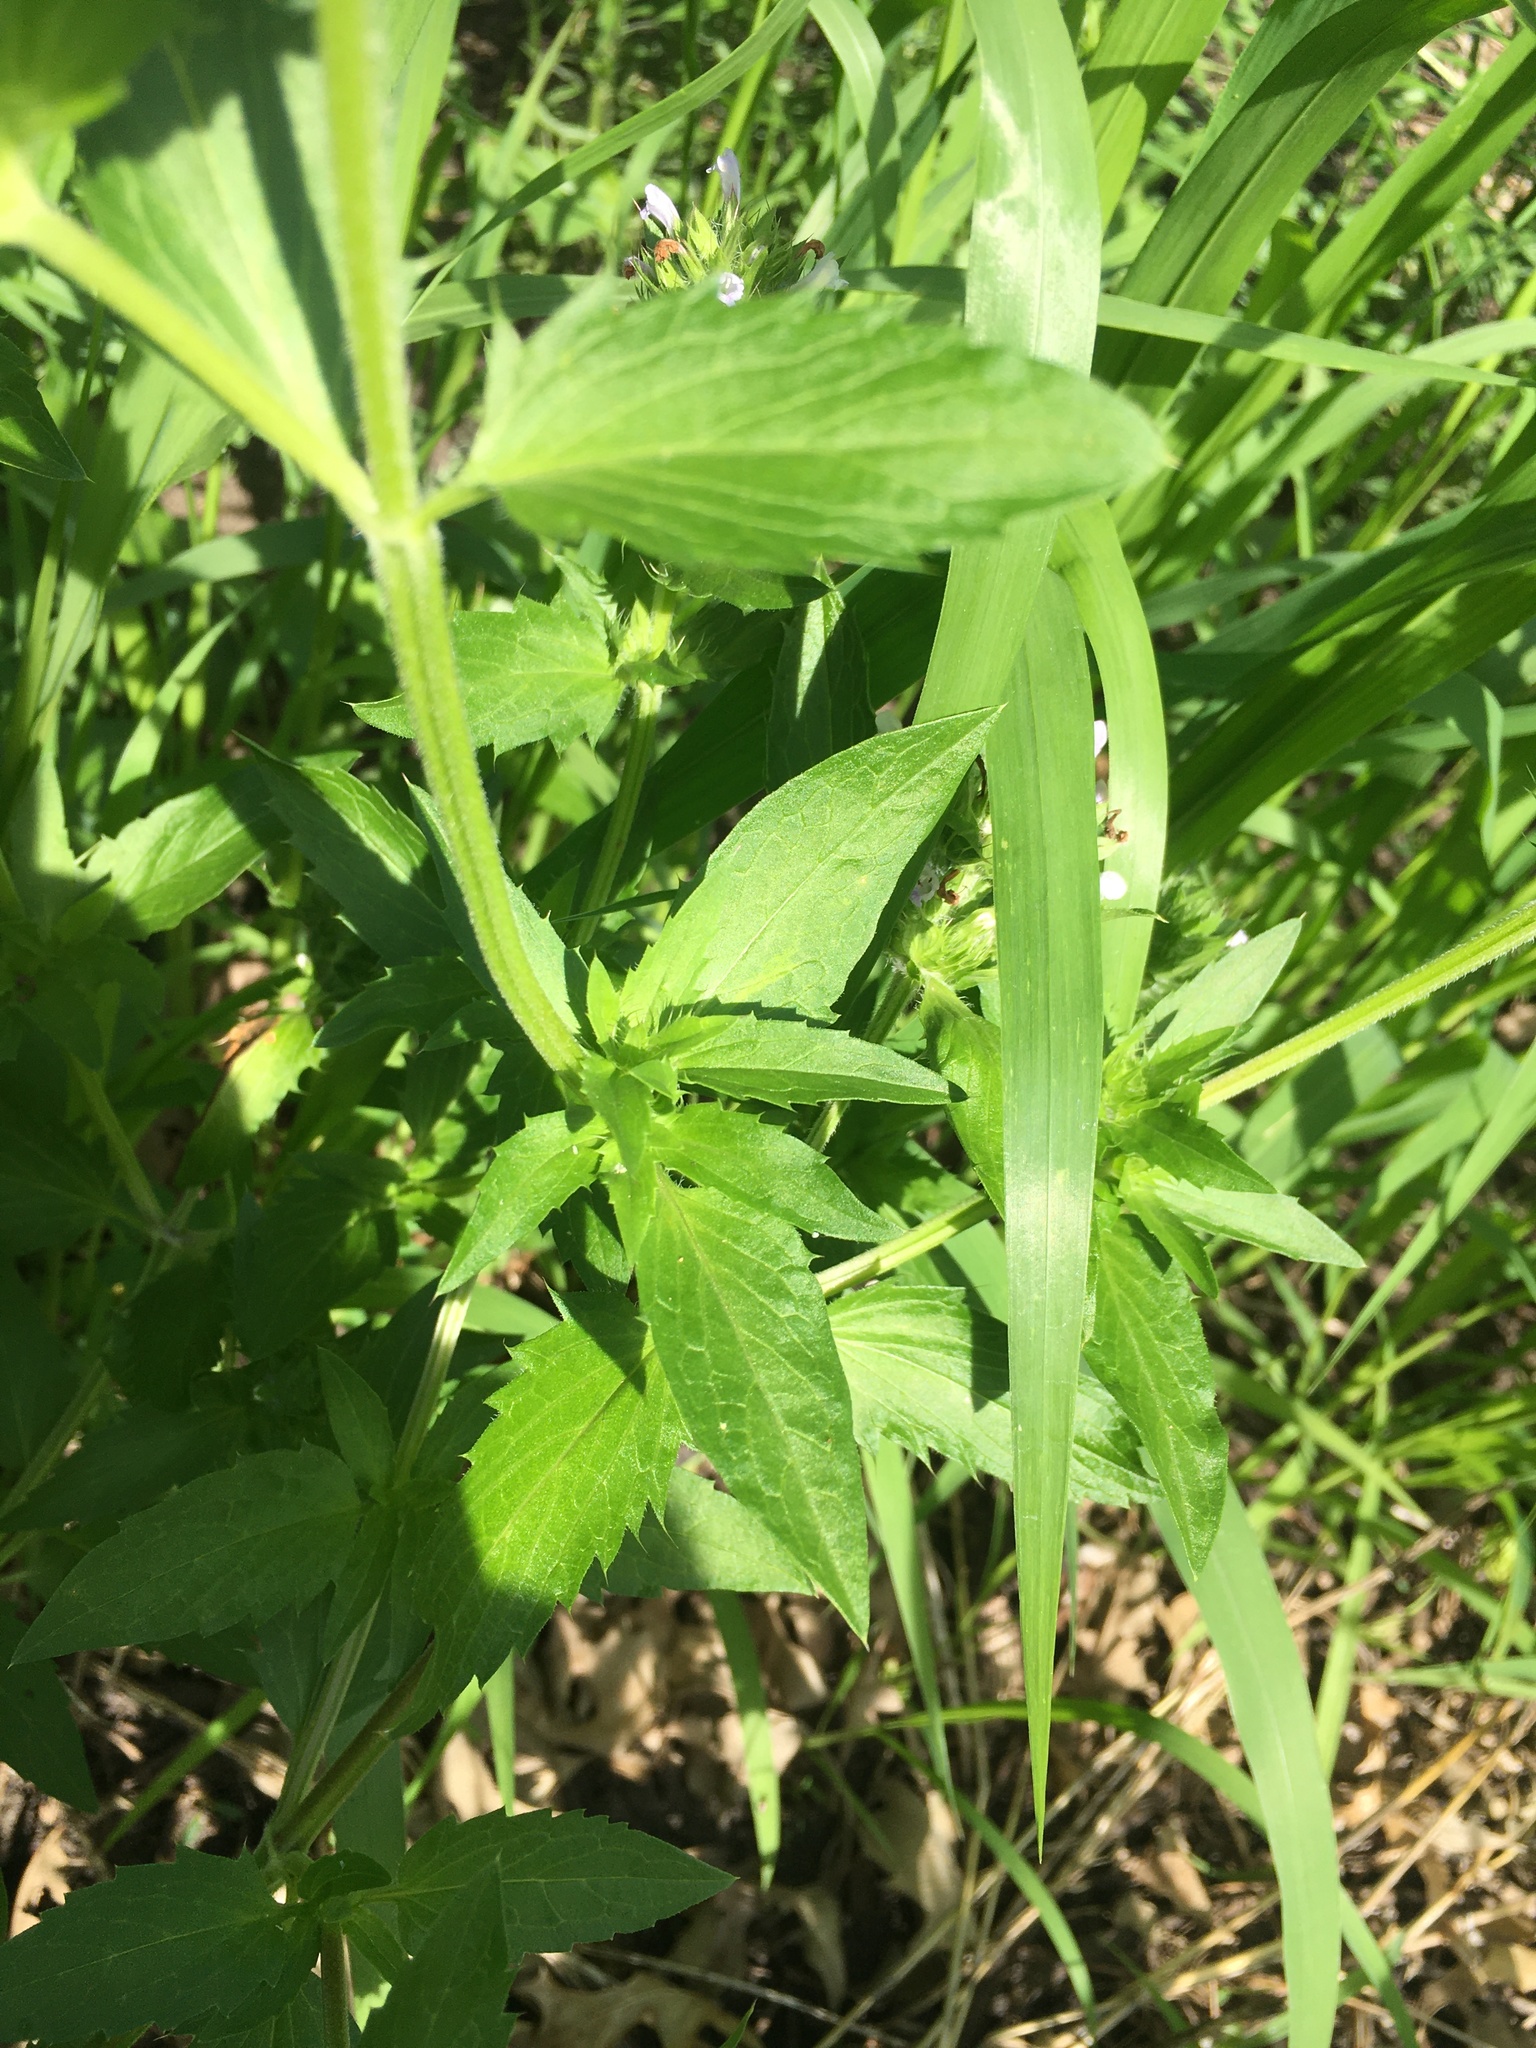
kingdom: Plantae
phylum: Tracheophyta
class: Magnoliopsida
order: Lamiales
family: Lamiaceae
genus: Dracocephalum
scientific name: Dracocephalum parviflorum
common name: American dragonhead
